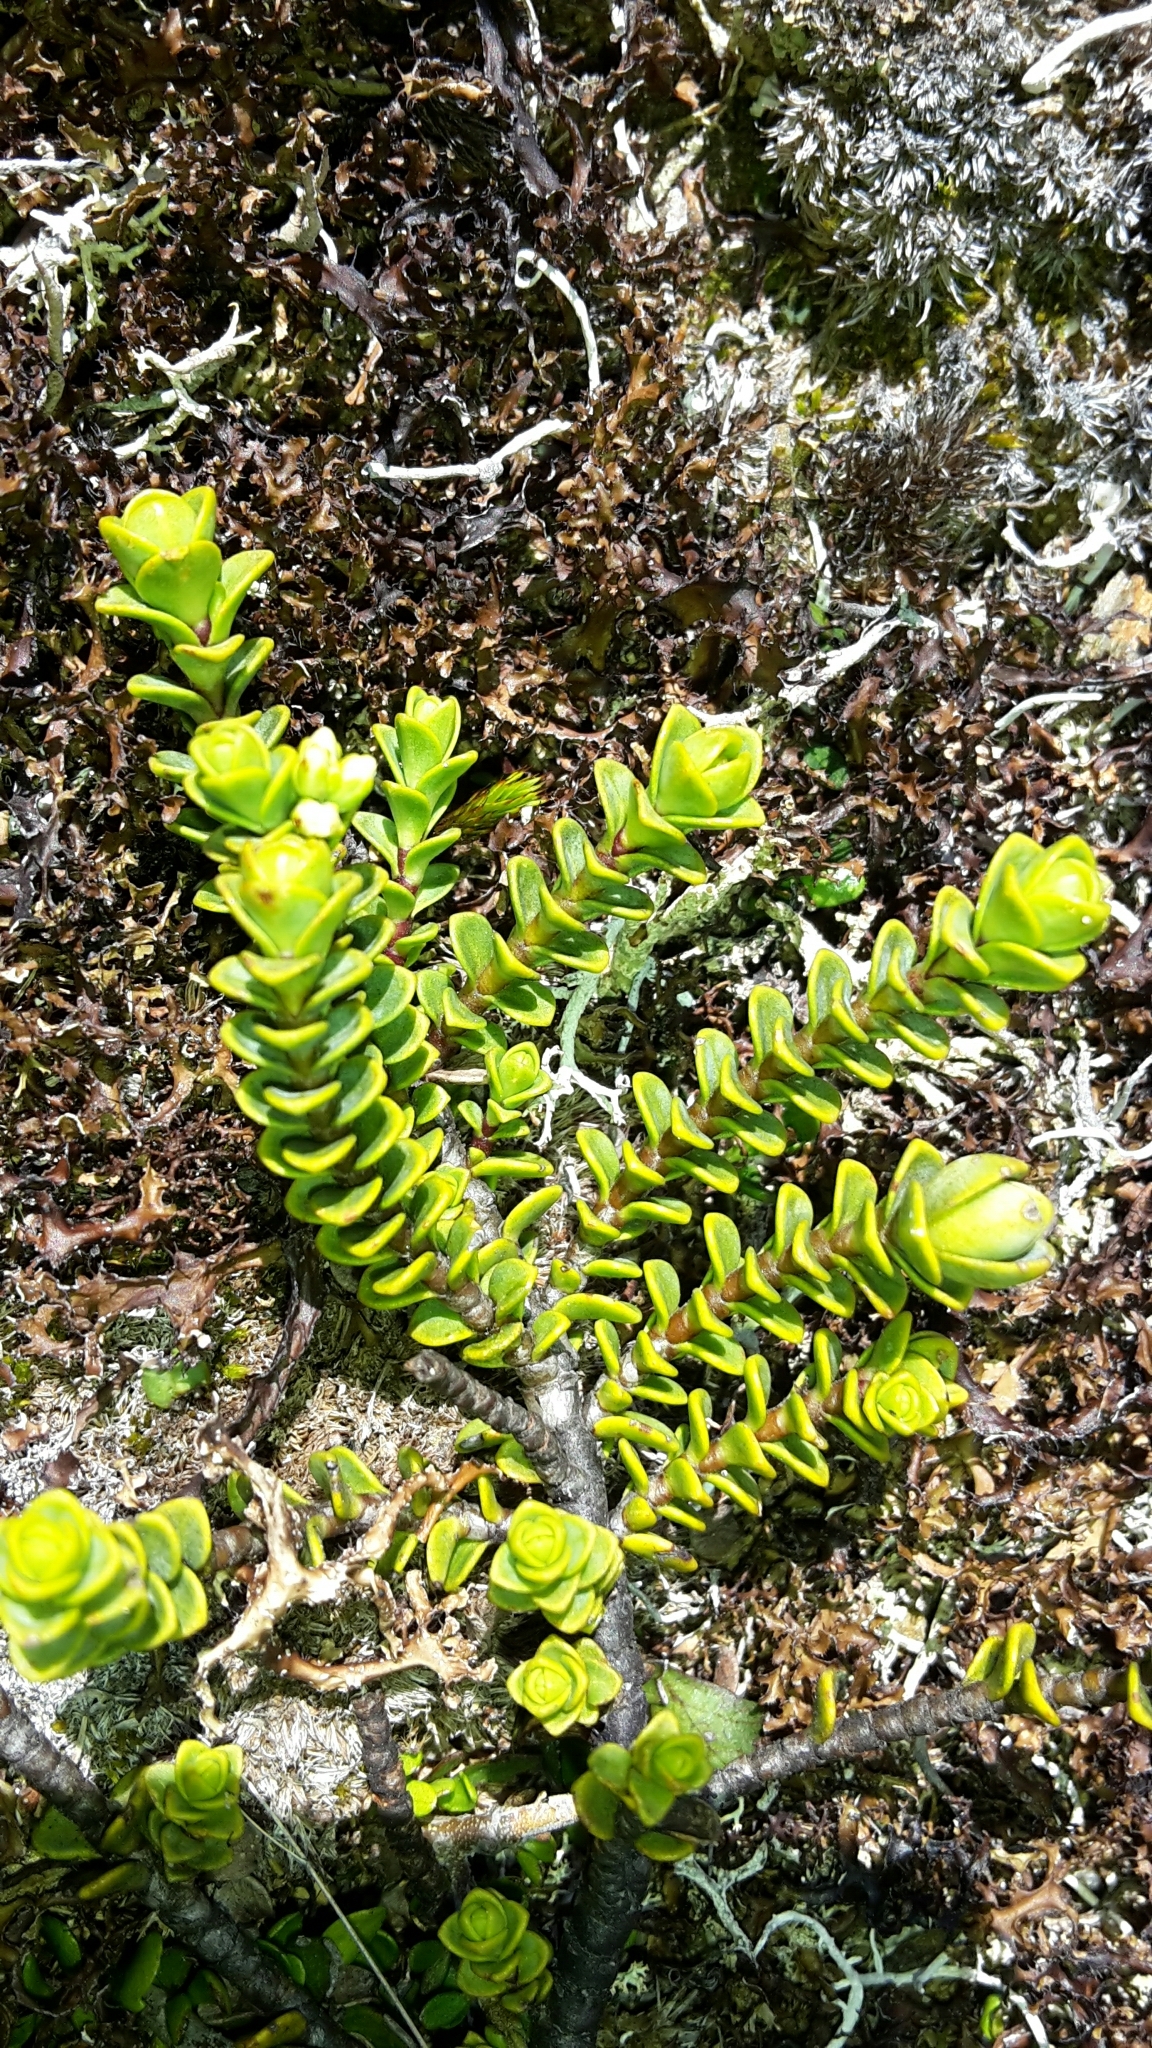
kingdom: Plantae
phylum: Tracheophyta
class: Magnoliopsida
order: Lamiales
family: Plantaginaceae
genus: Veronica
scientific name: Veronica buchananii
